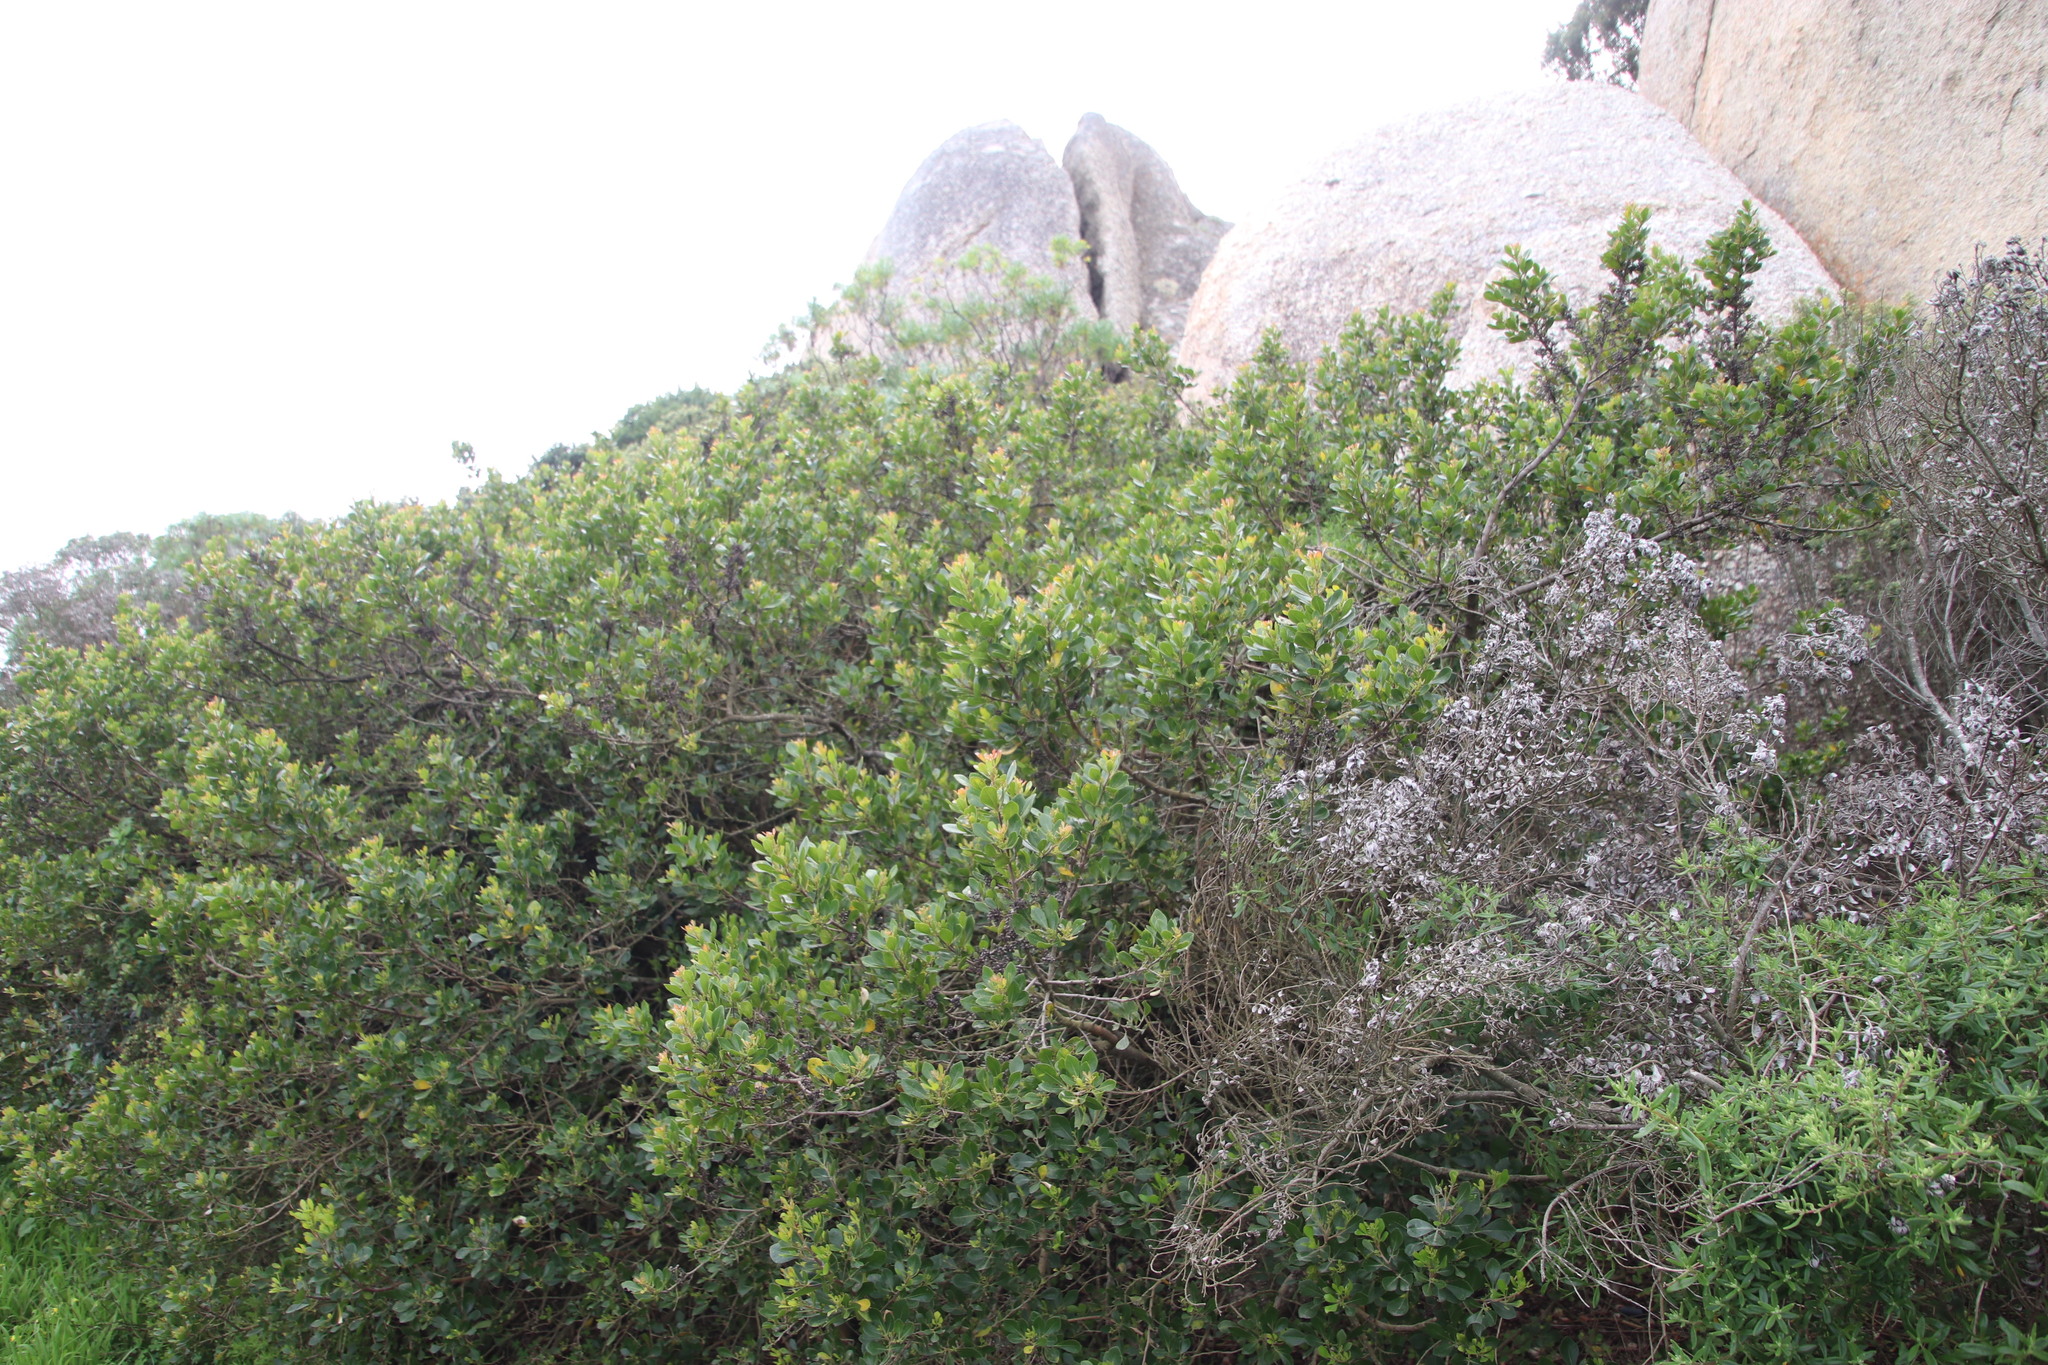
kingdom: Plantae
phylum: Tracheophyta
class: Magnoliopsida
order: Sapindales
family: Anacardiaceae
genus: Searsia
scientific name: Searsia lucida
